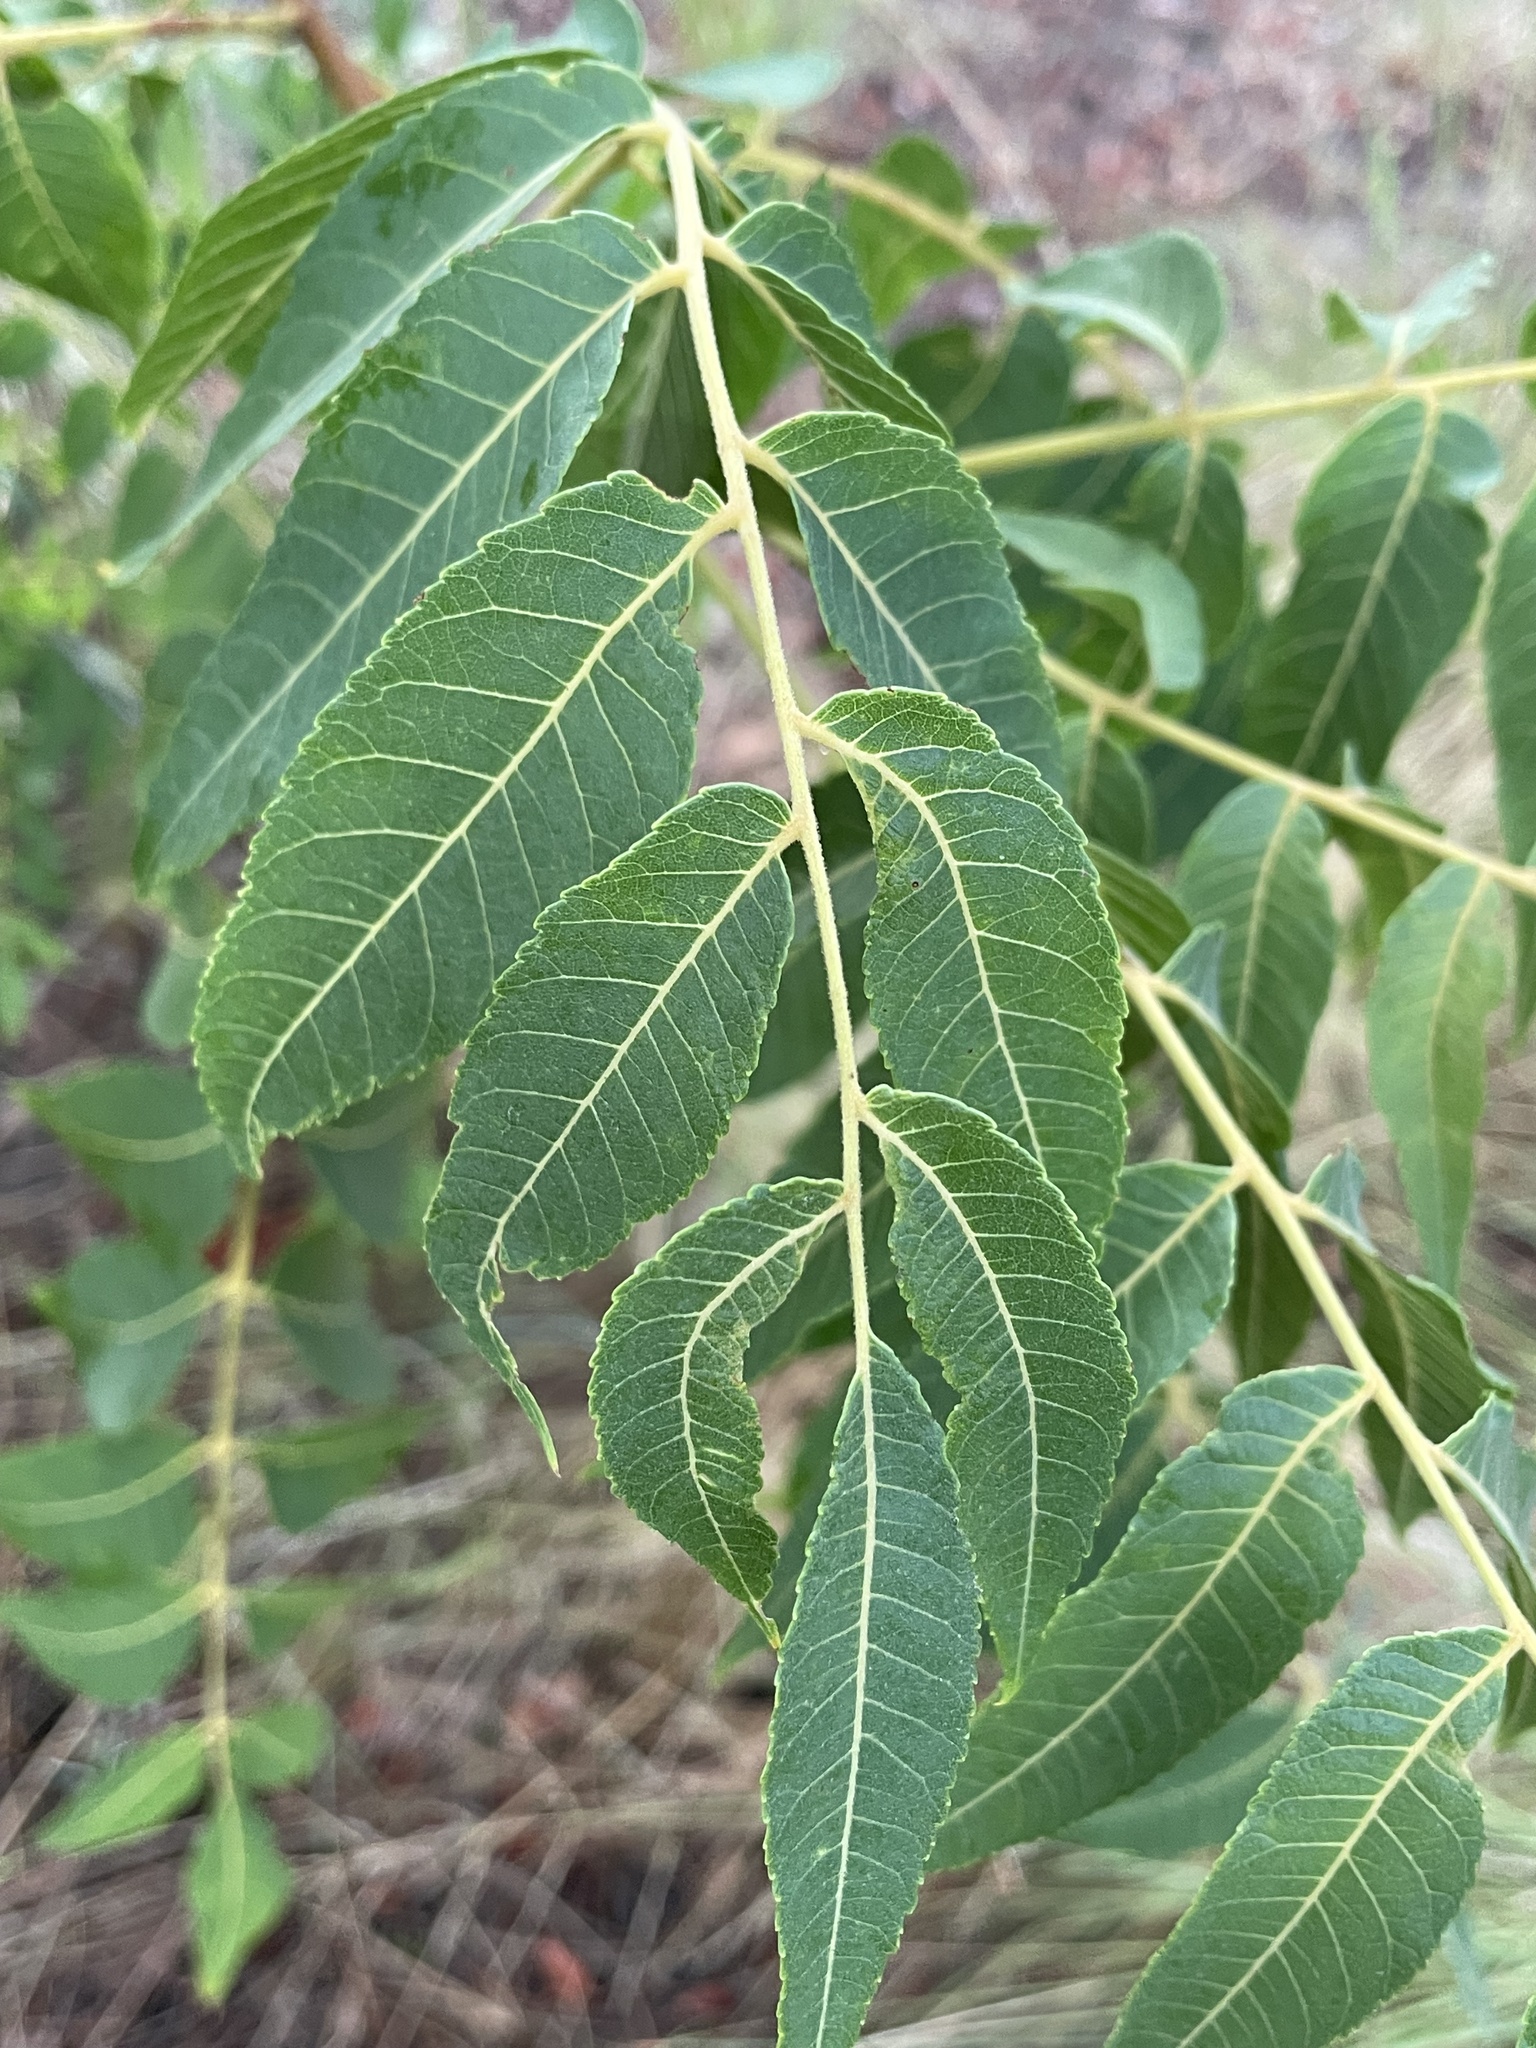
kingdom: Plantae
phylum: Tracheophyta
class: Magnoliopsida
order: Fagales
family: Juglandaceae
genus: Juglans
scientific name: Juglans major
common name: Arizona walnut
